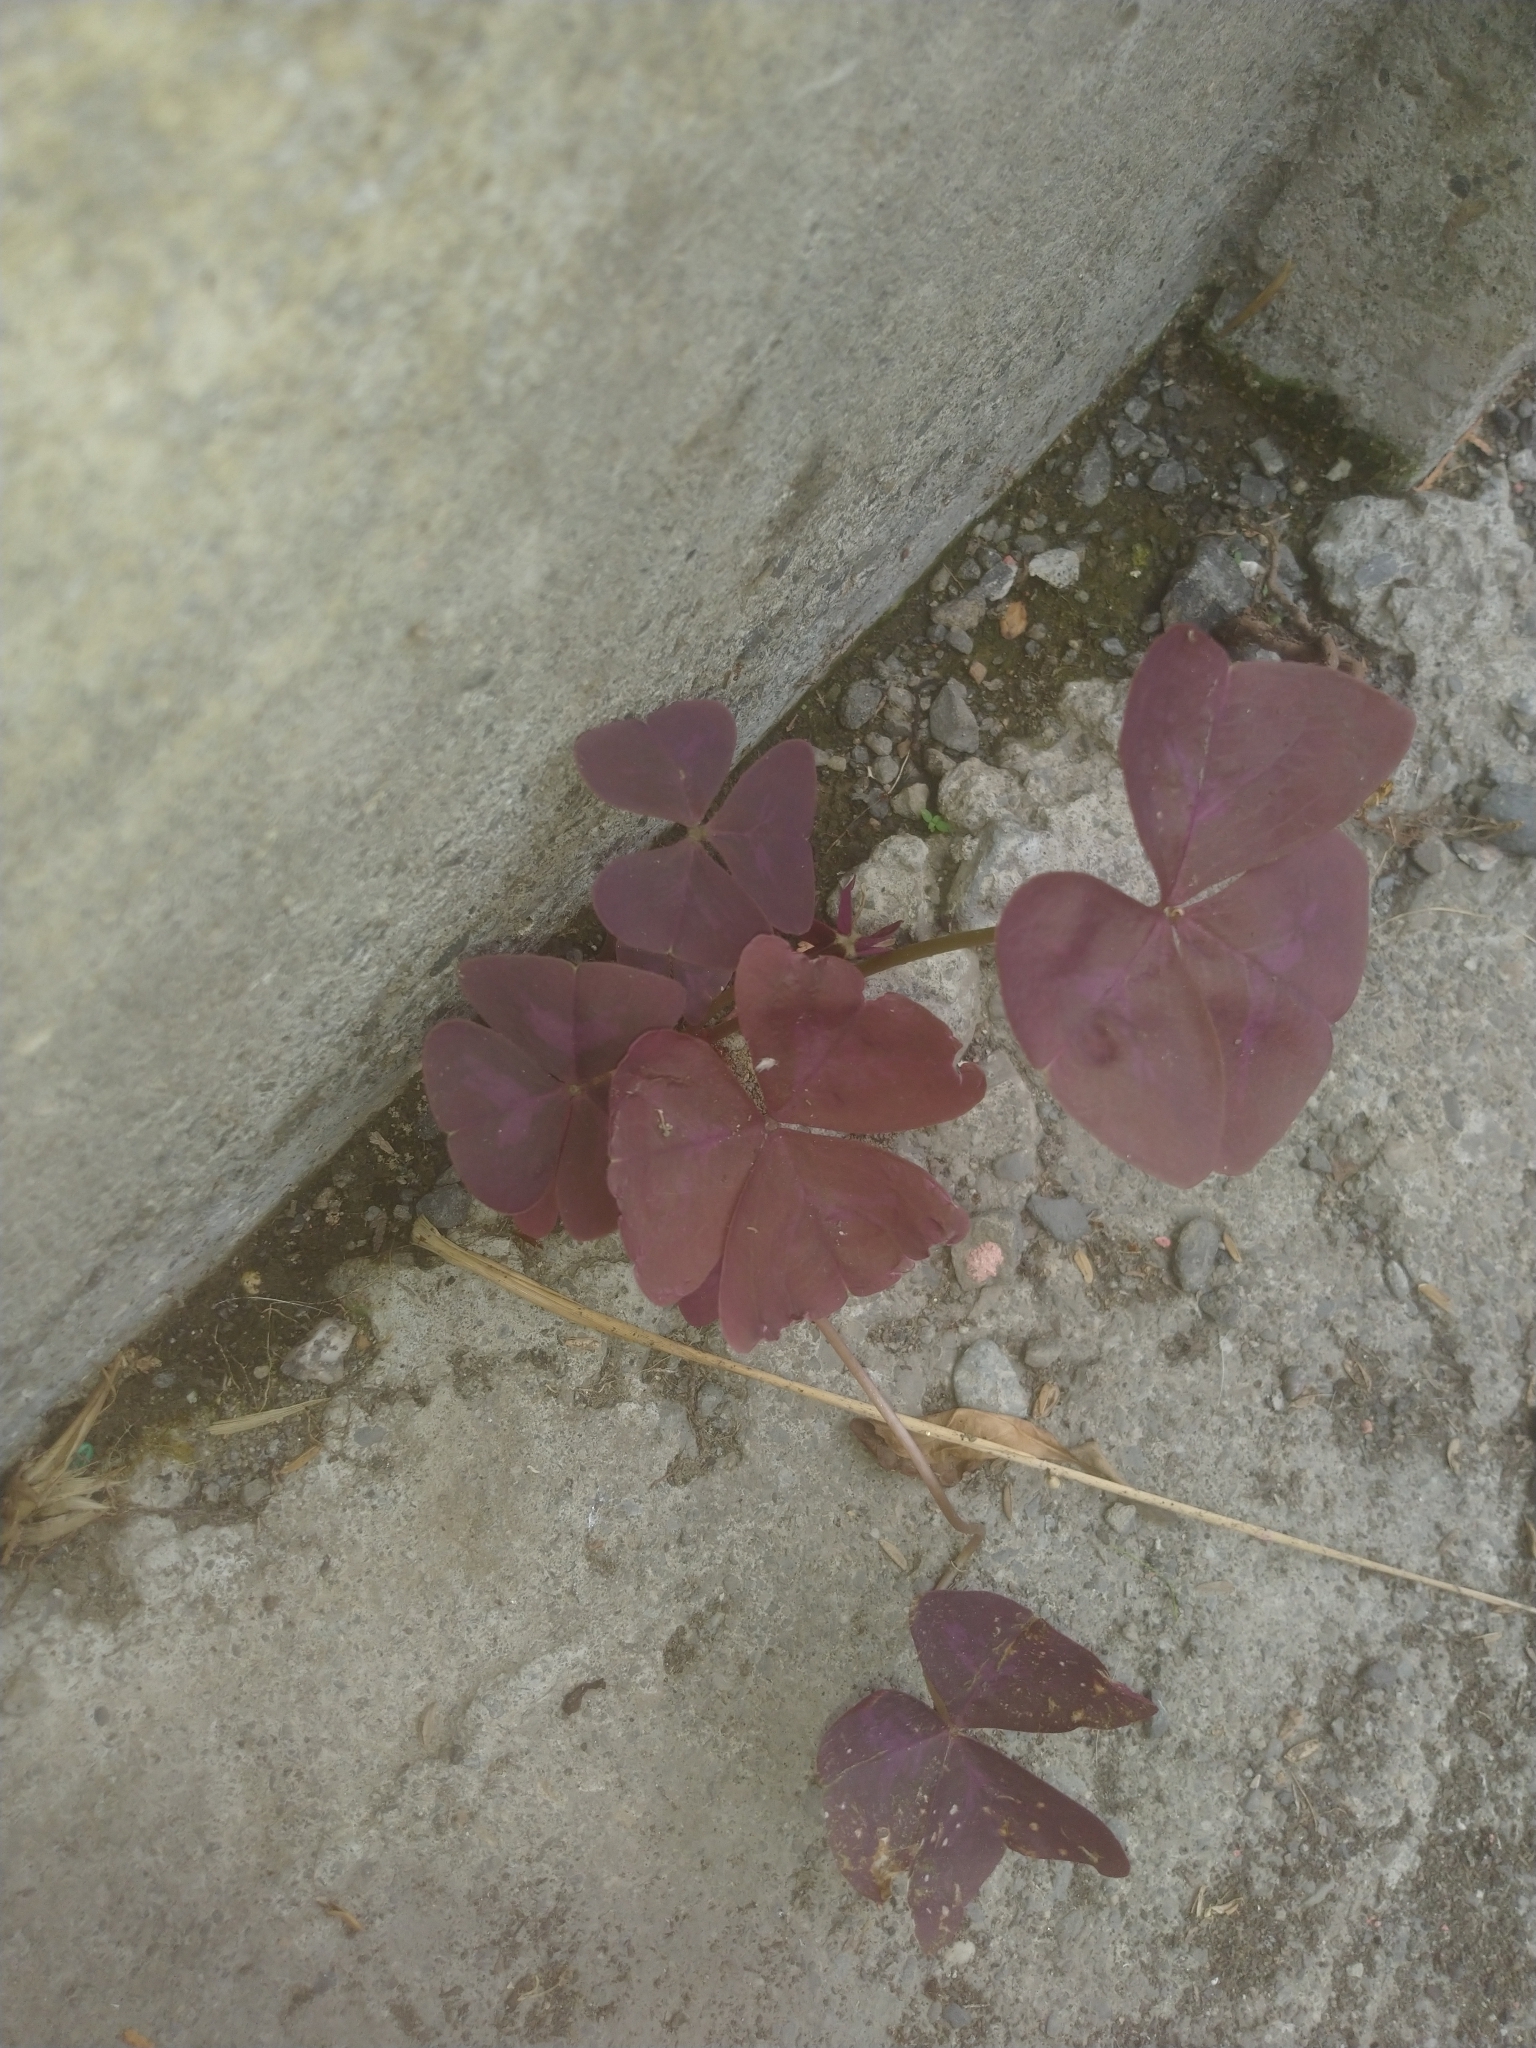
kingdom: Plantae
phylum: Tracheophyta
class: Magnoliopsida
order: Oxalidales
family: Oxalidaceae
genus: Oxalis
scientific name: Oxalis triangularis
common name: Wood sorrel
